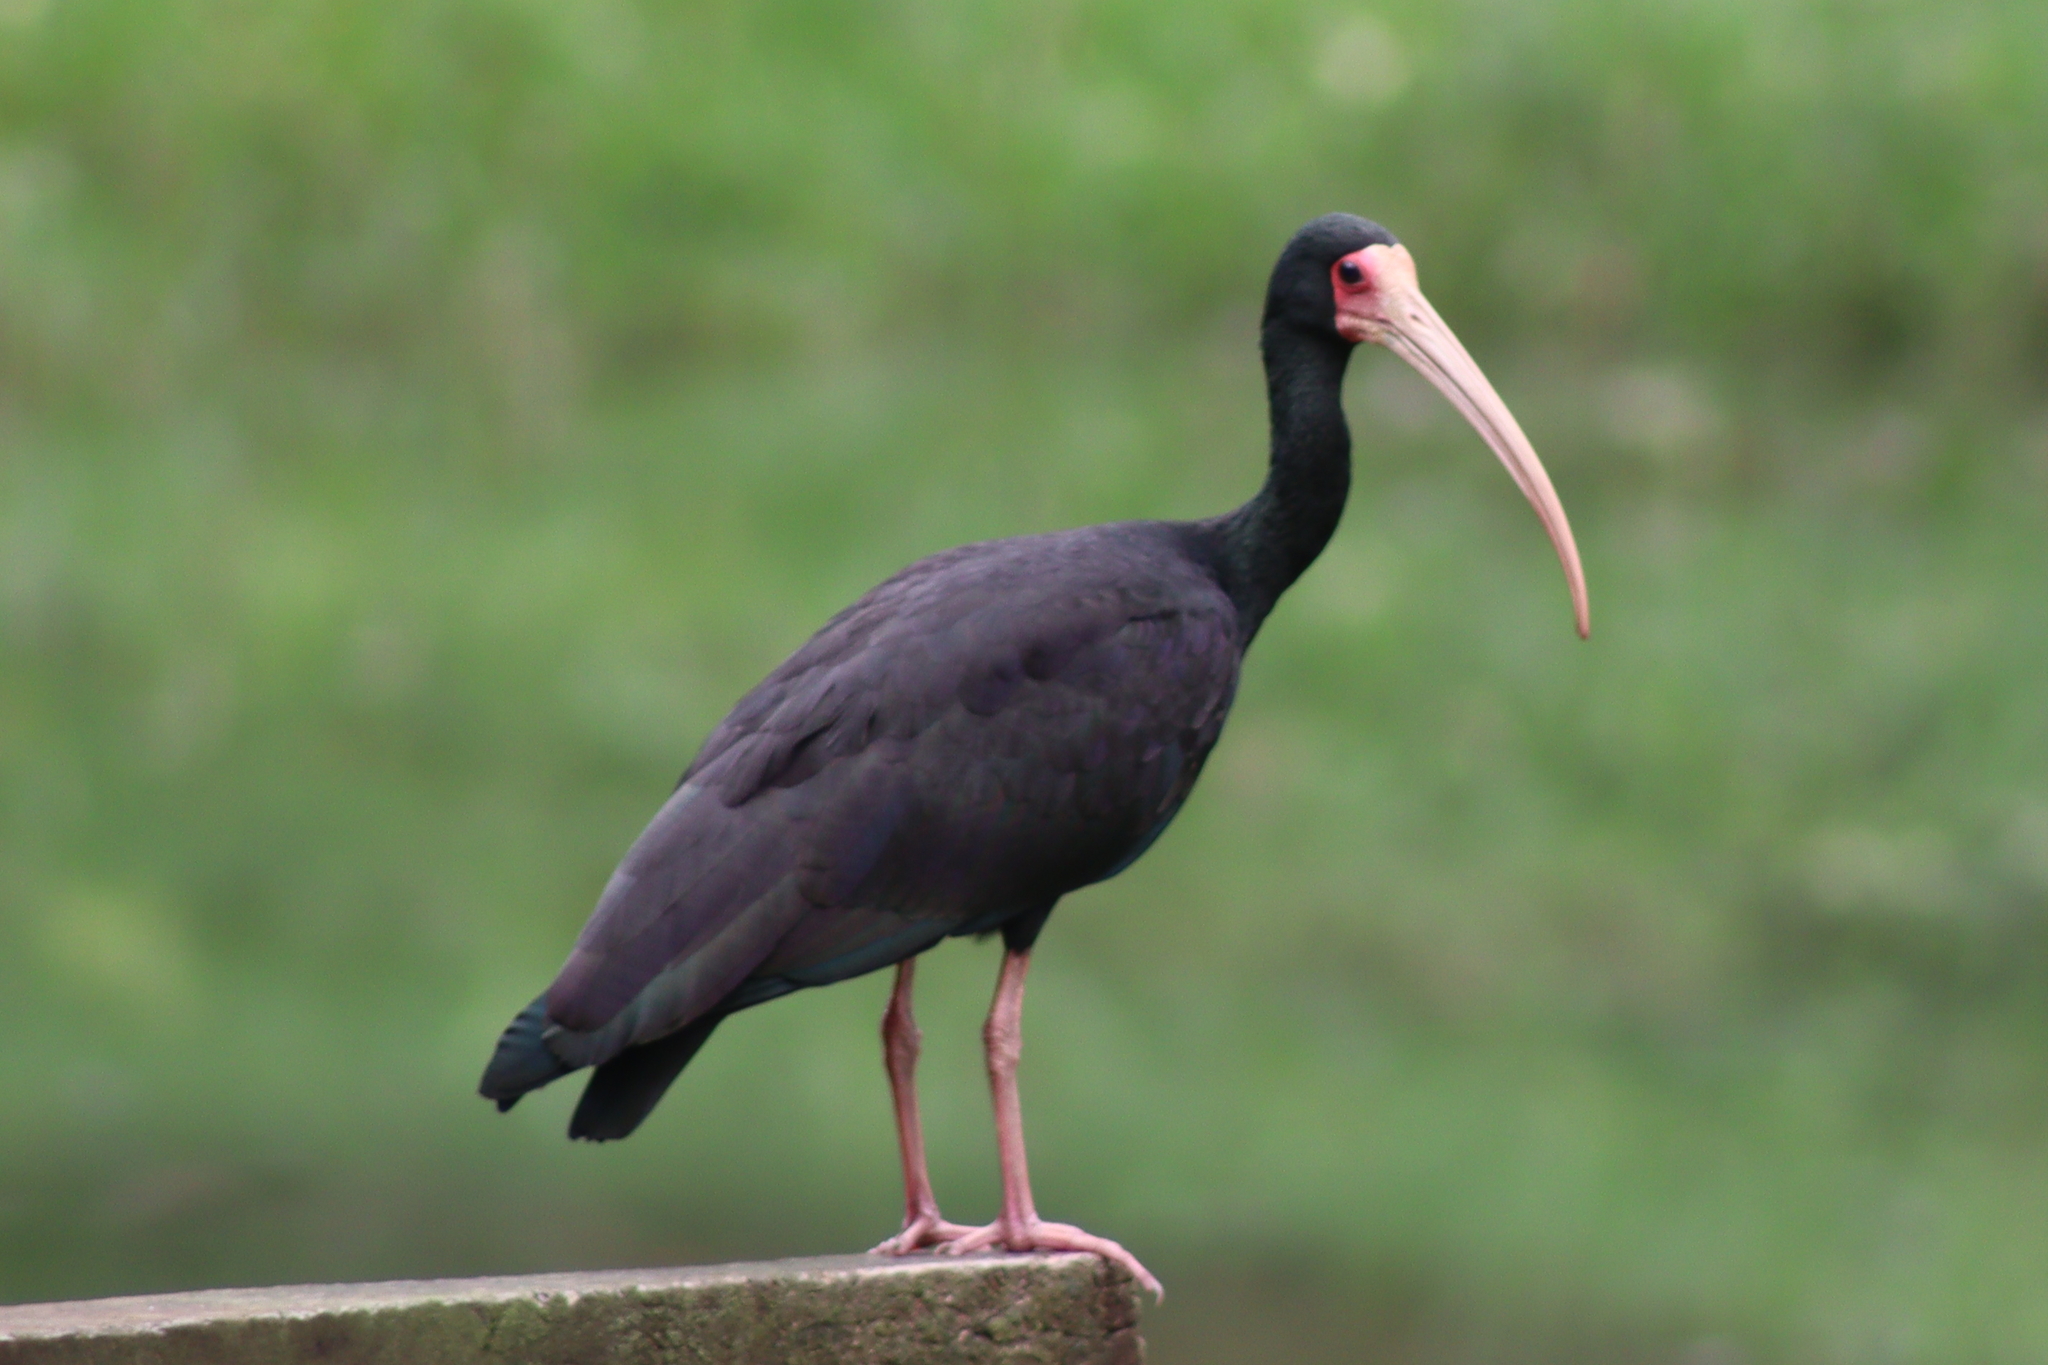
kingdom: Animalia
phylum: Chordata
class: Aves
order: Pelecaniformes
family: Threskiornithidae
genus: Phimosus
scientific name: Phimosus infuscatus
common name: Bare-faced ibis
